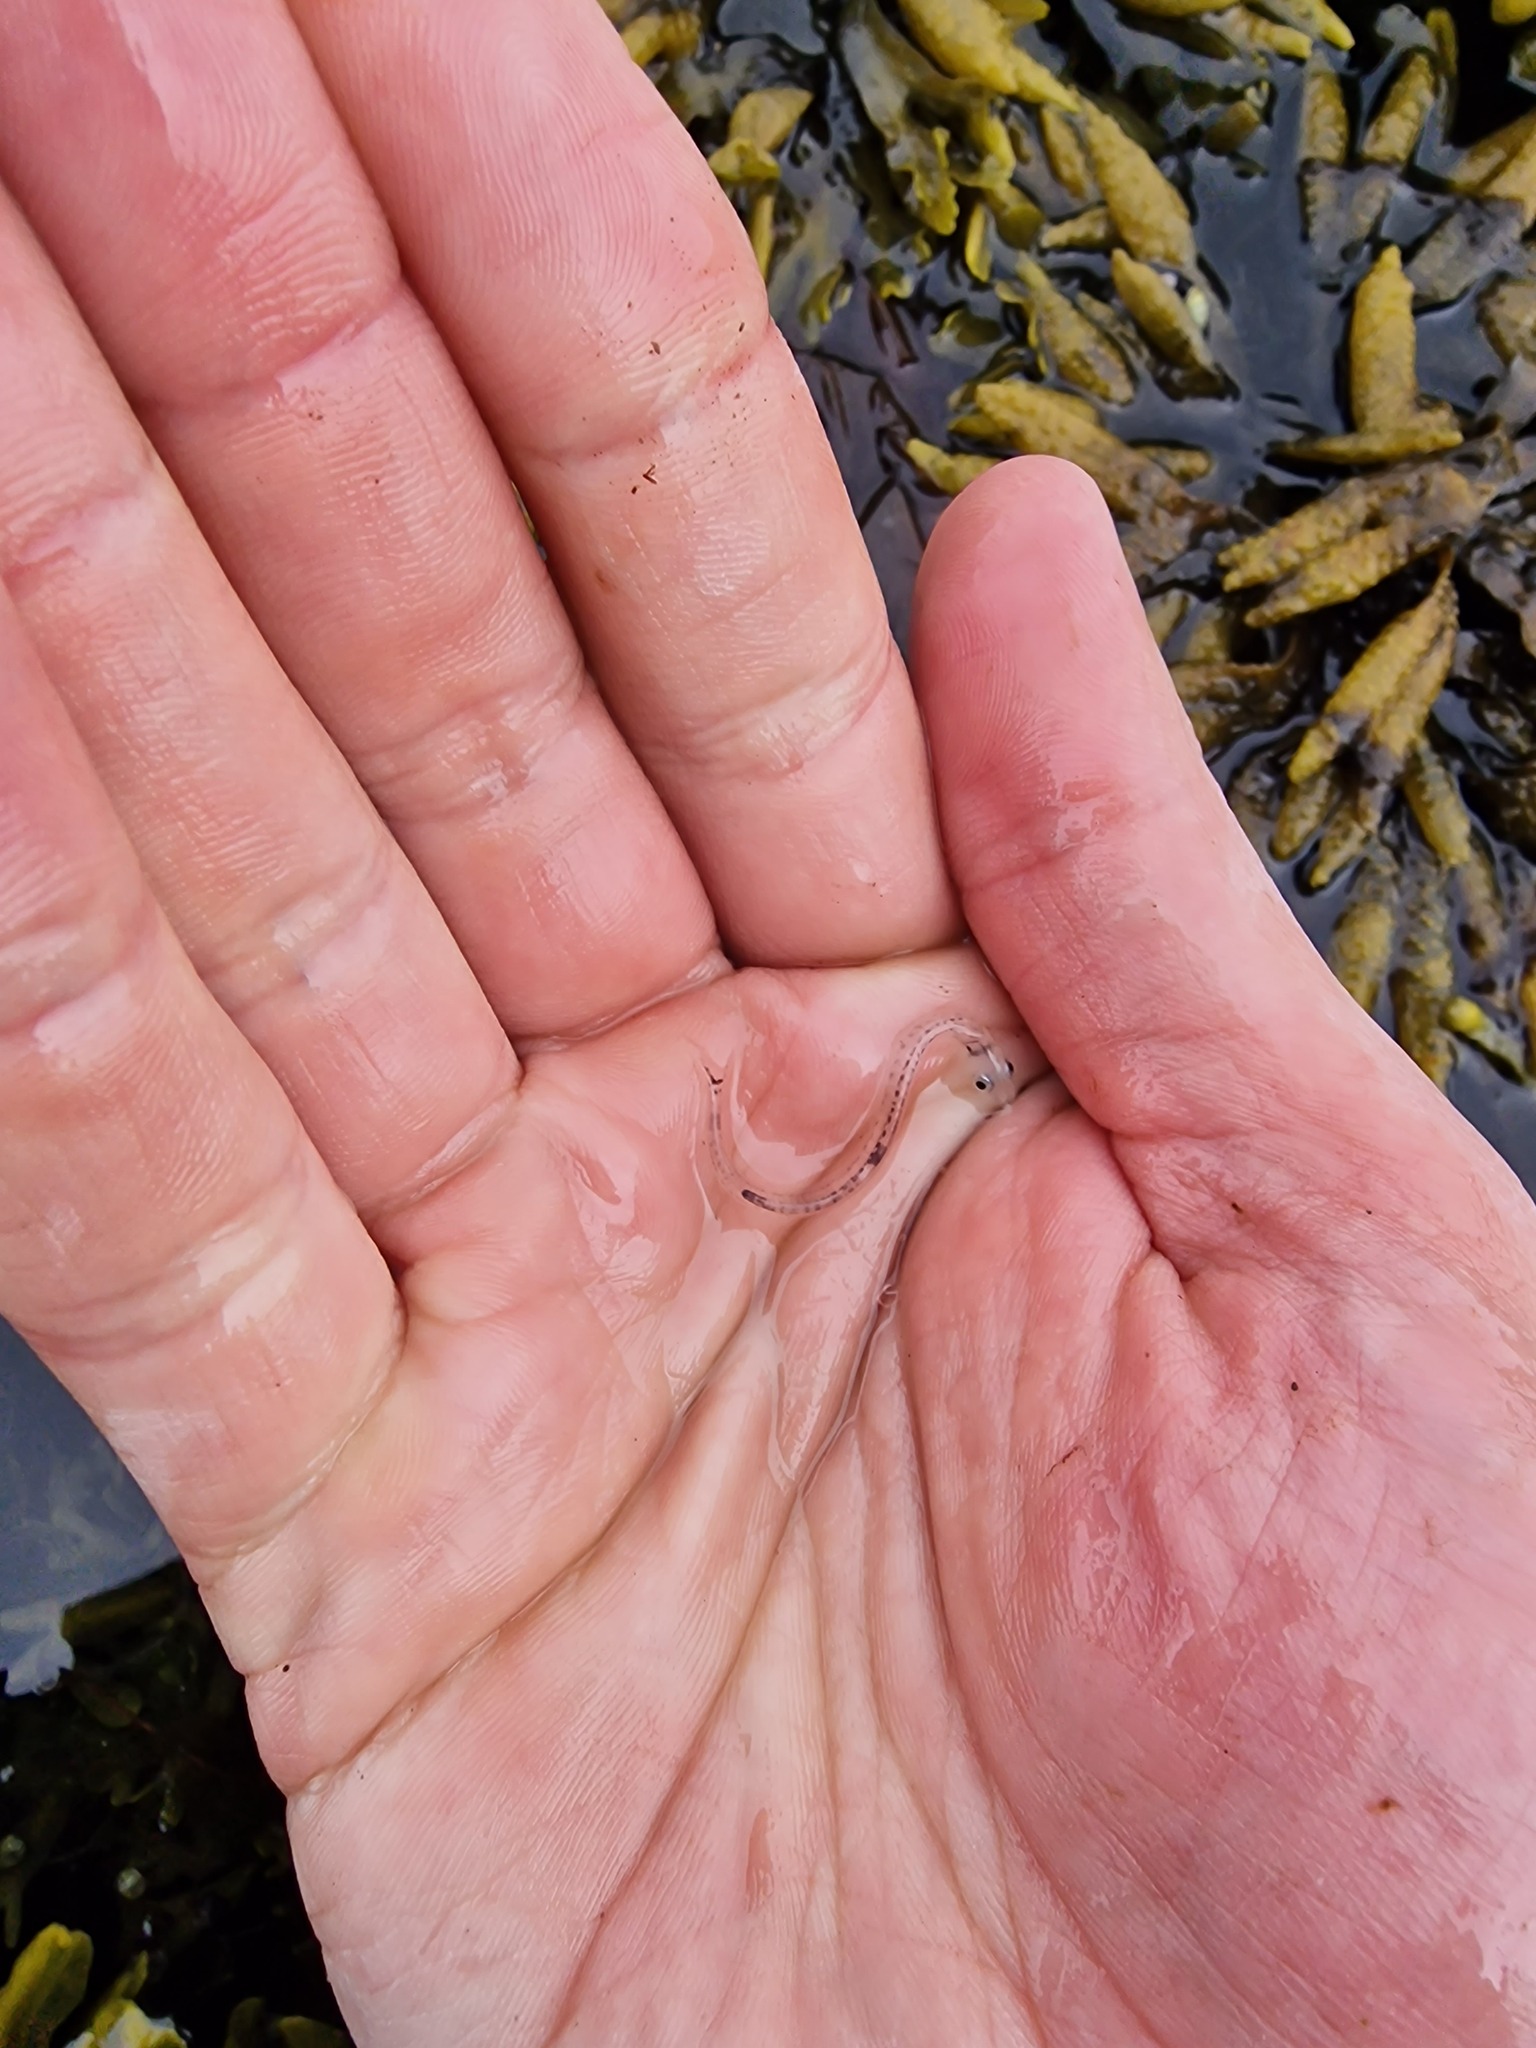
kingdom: Animalia
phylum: Chordata
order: Osmeriformes
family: Osmeridae
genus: Mallotus
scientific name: Mallotus villosus
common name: Capelin
